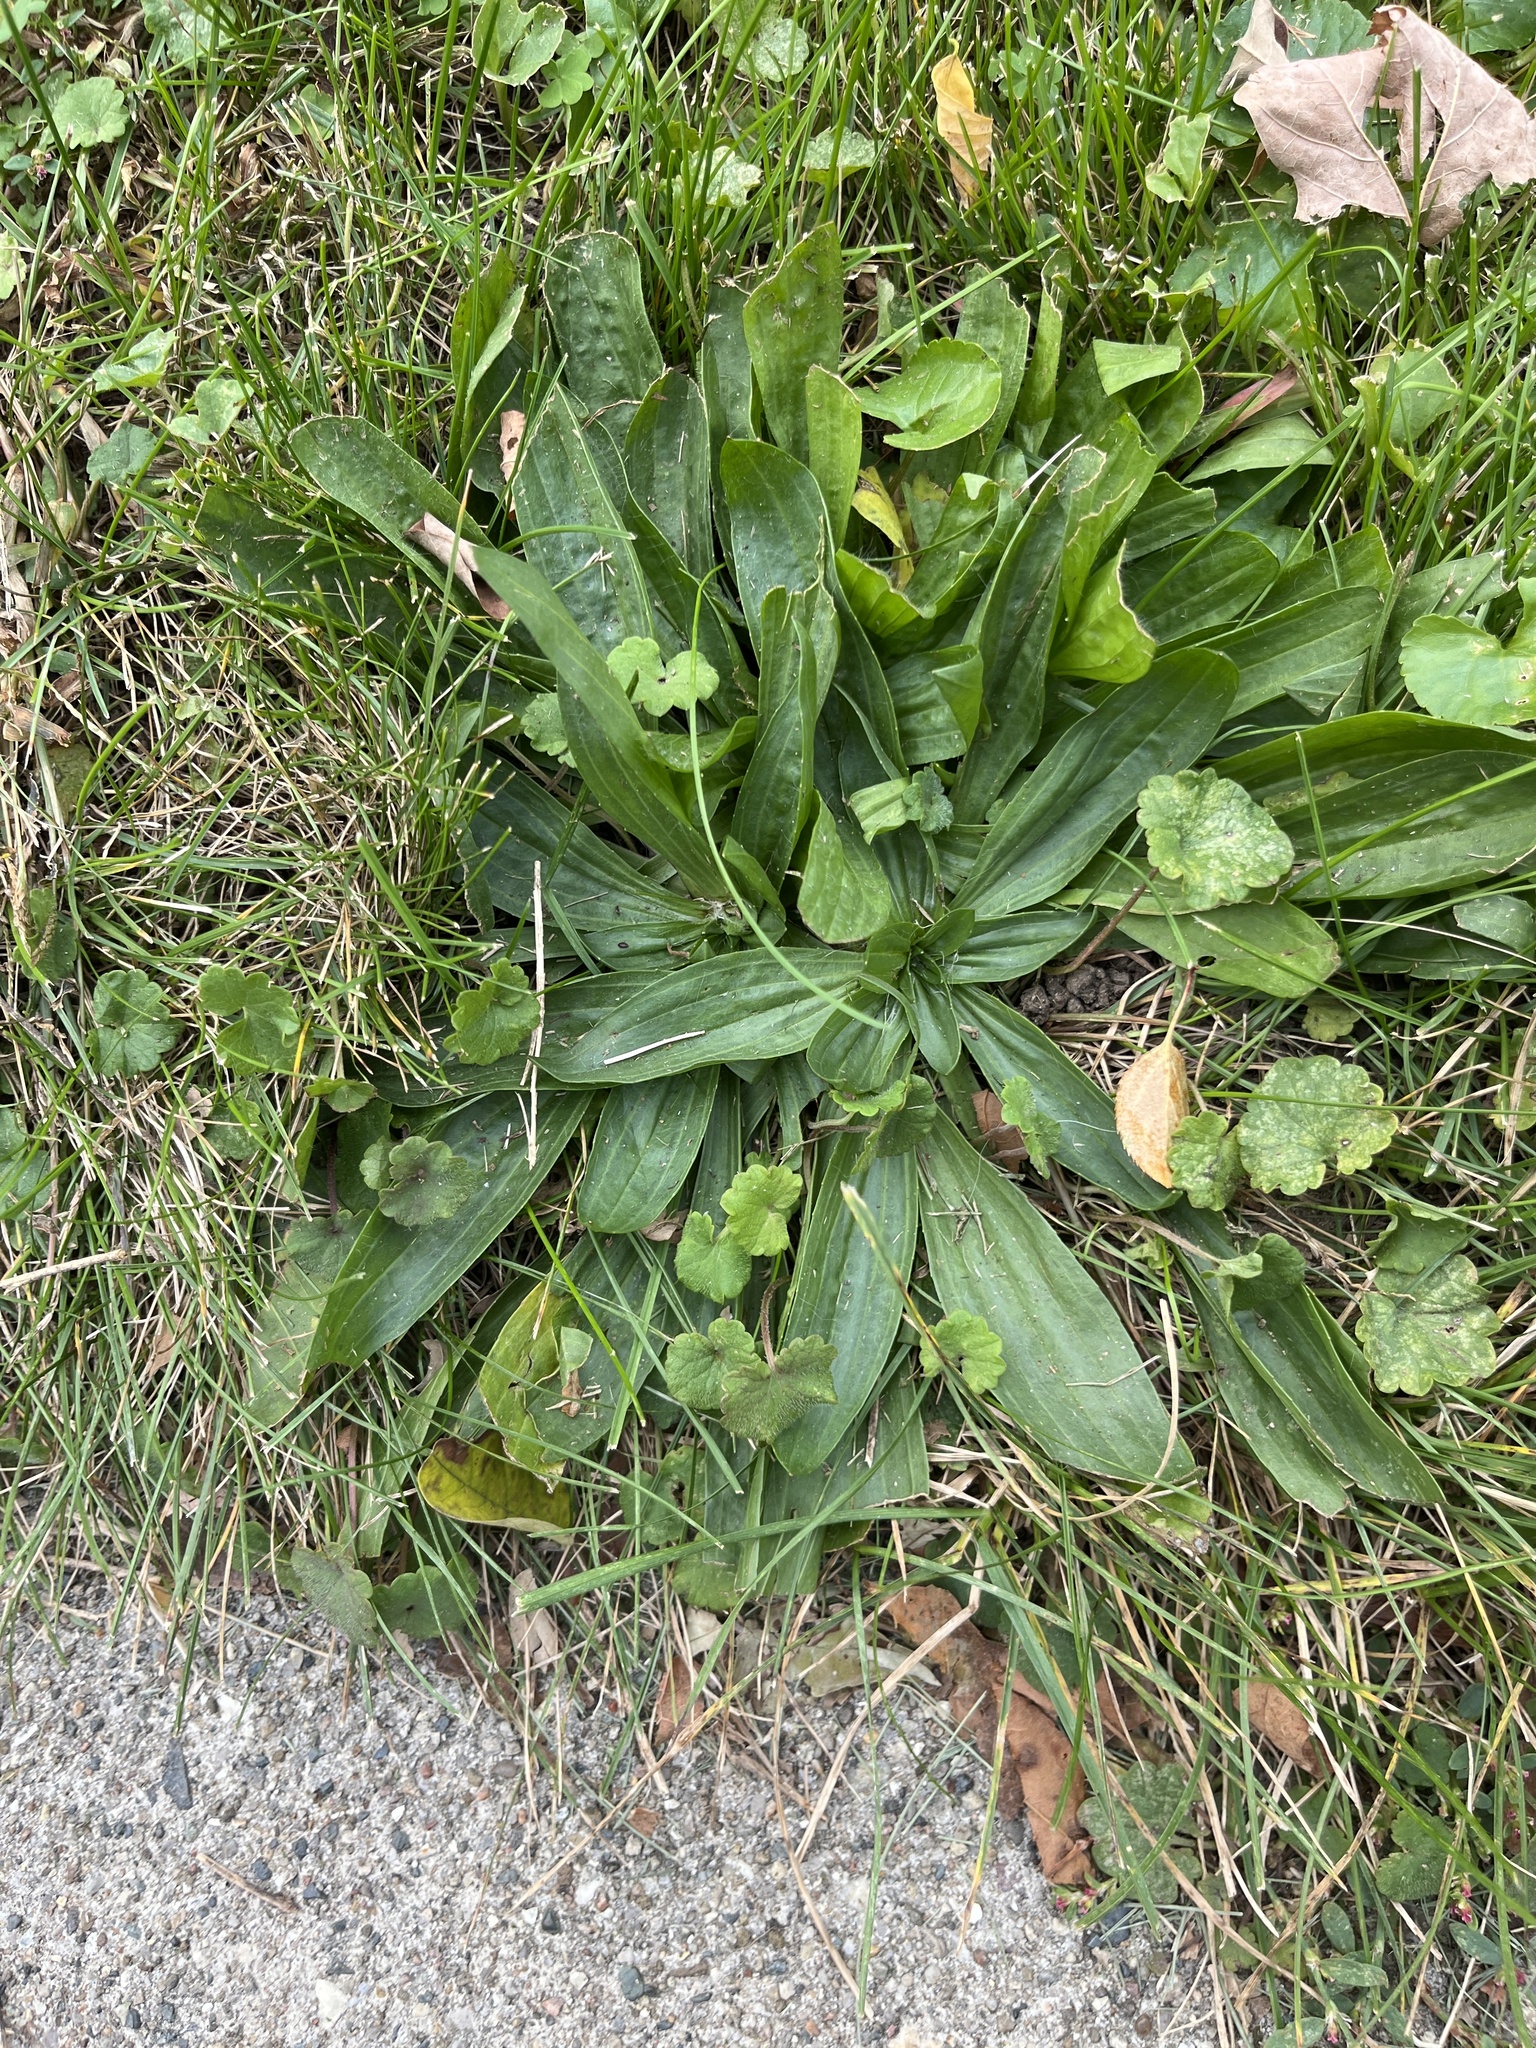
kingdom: Plantae
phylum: Tracheophyta
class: Magnoliopsida
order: Lamiales
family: Plantaginaceae
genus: Plantago
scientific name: Plantago lanceolata
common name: Ribwort plantain
